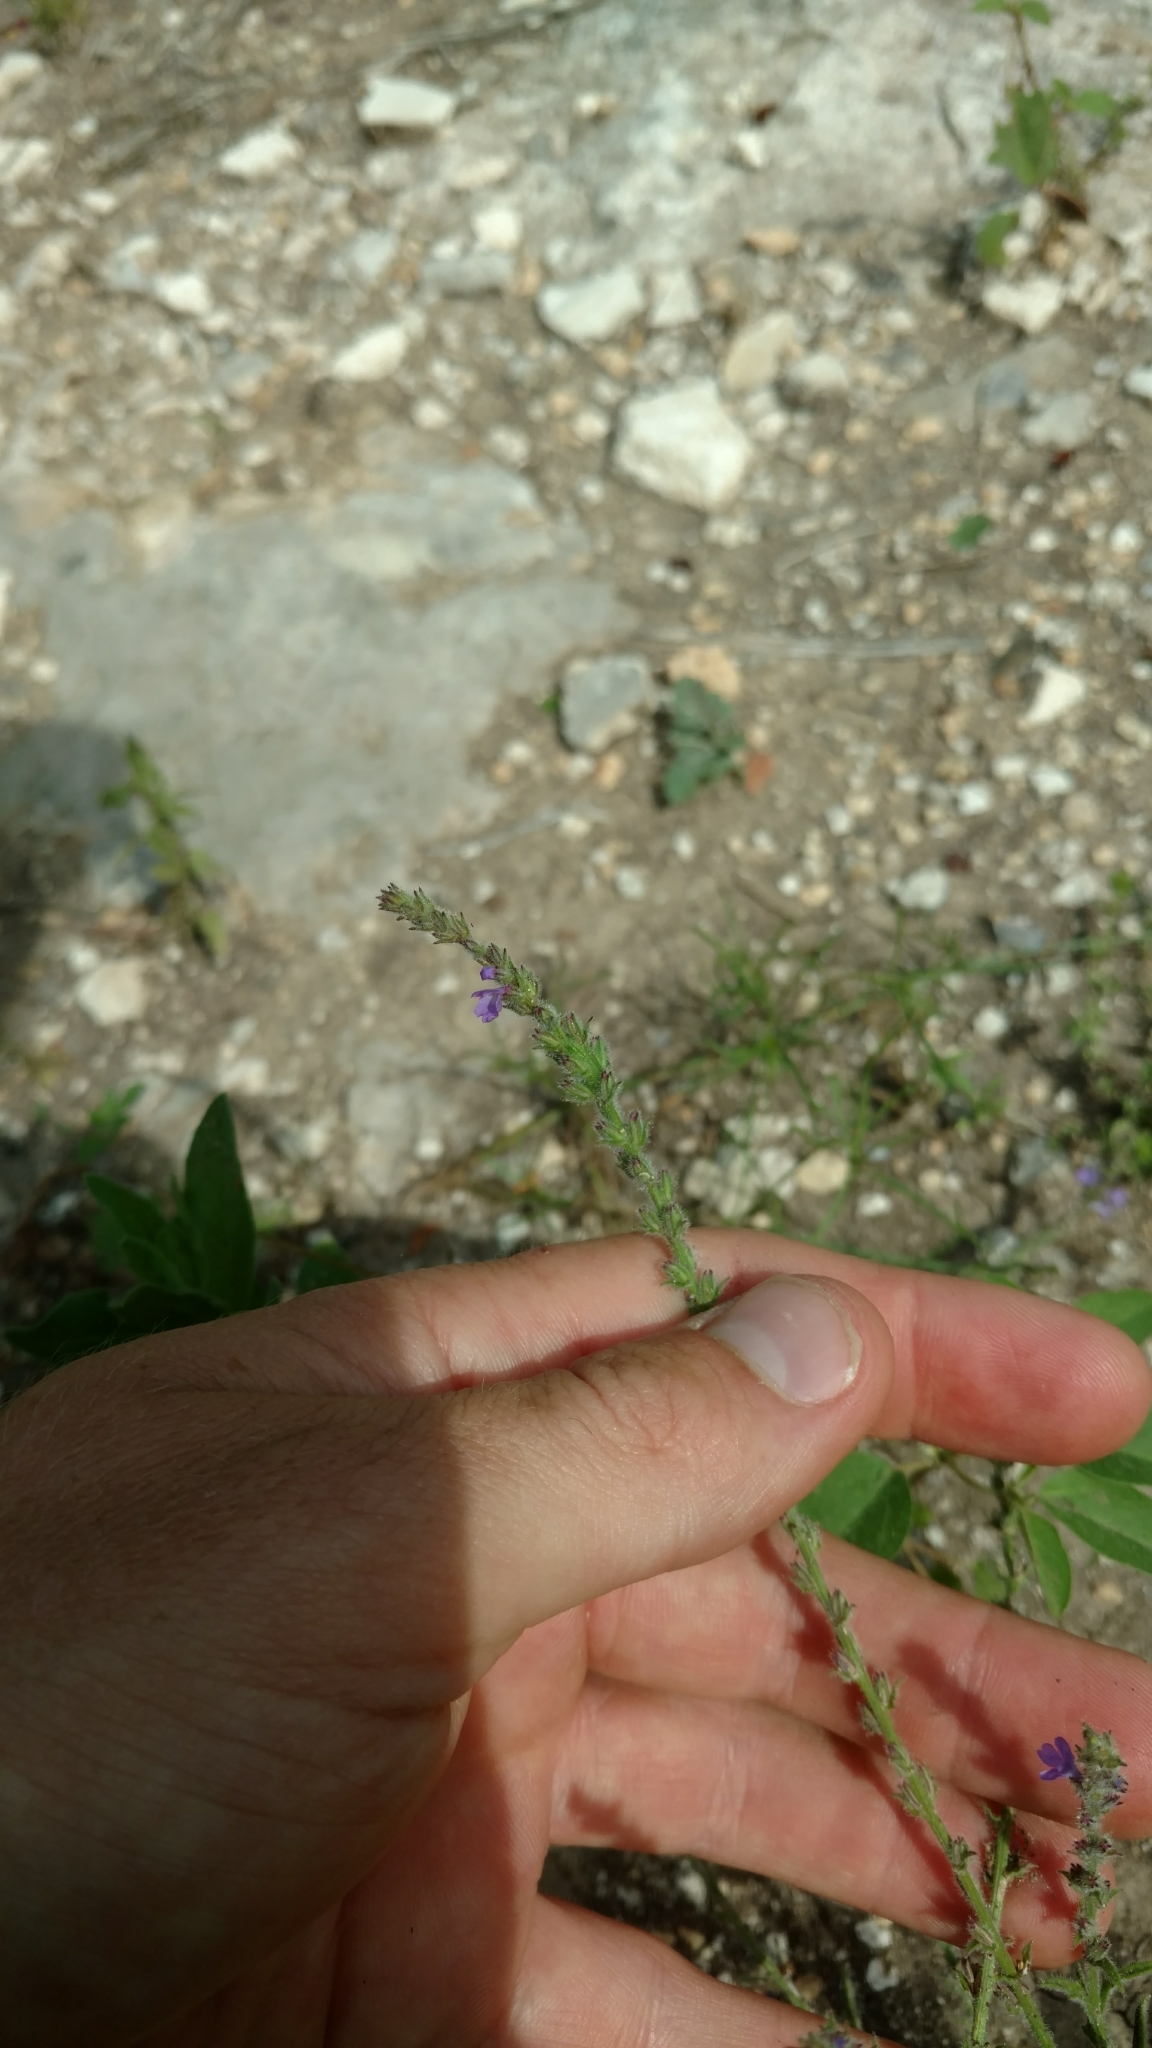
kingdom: Plantae
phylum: Tracheophyta
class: Magnoliopsida
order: Lamiales
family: Verbenaceae
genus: Verbena
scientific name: Verbena canescens
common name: Gray vervain
